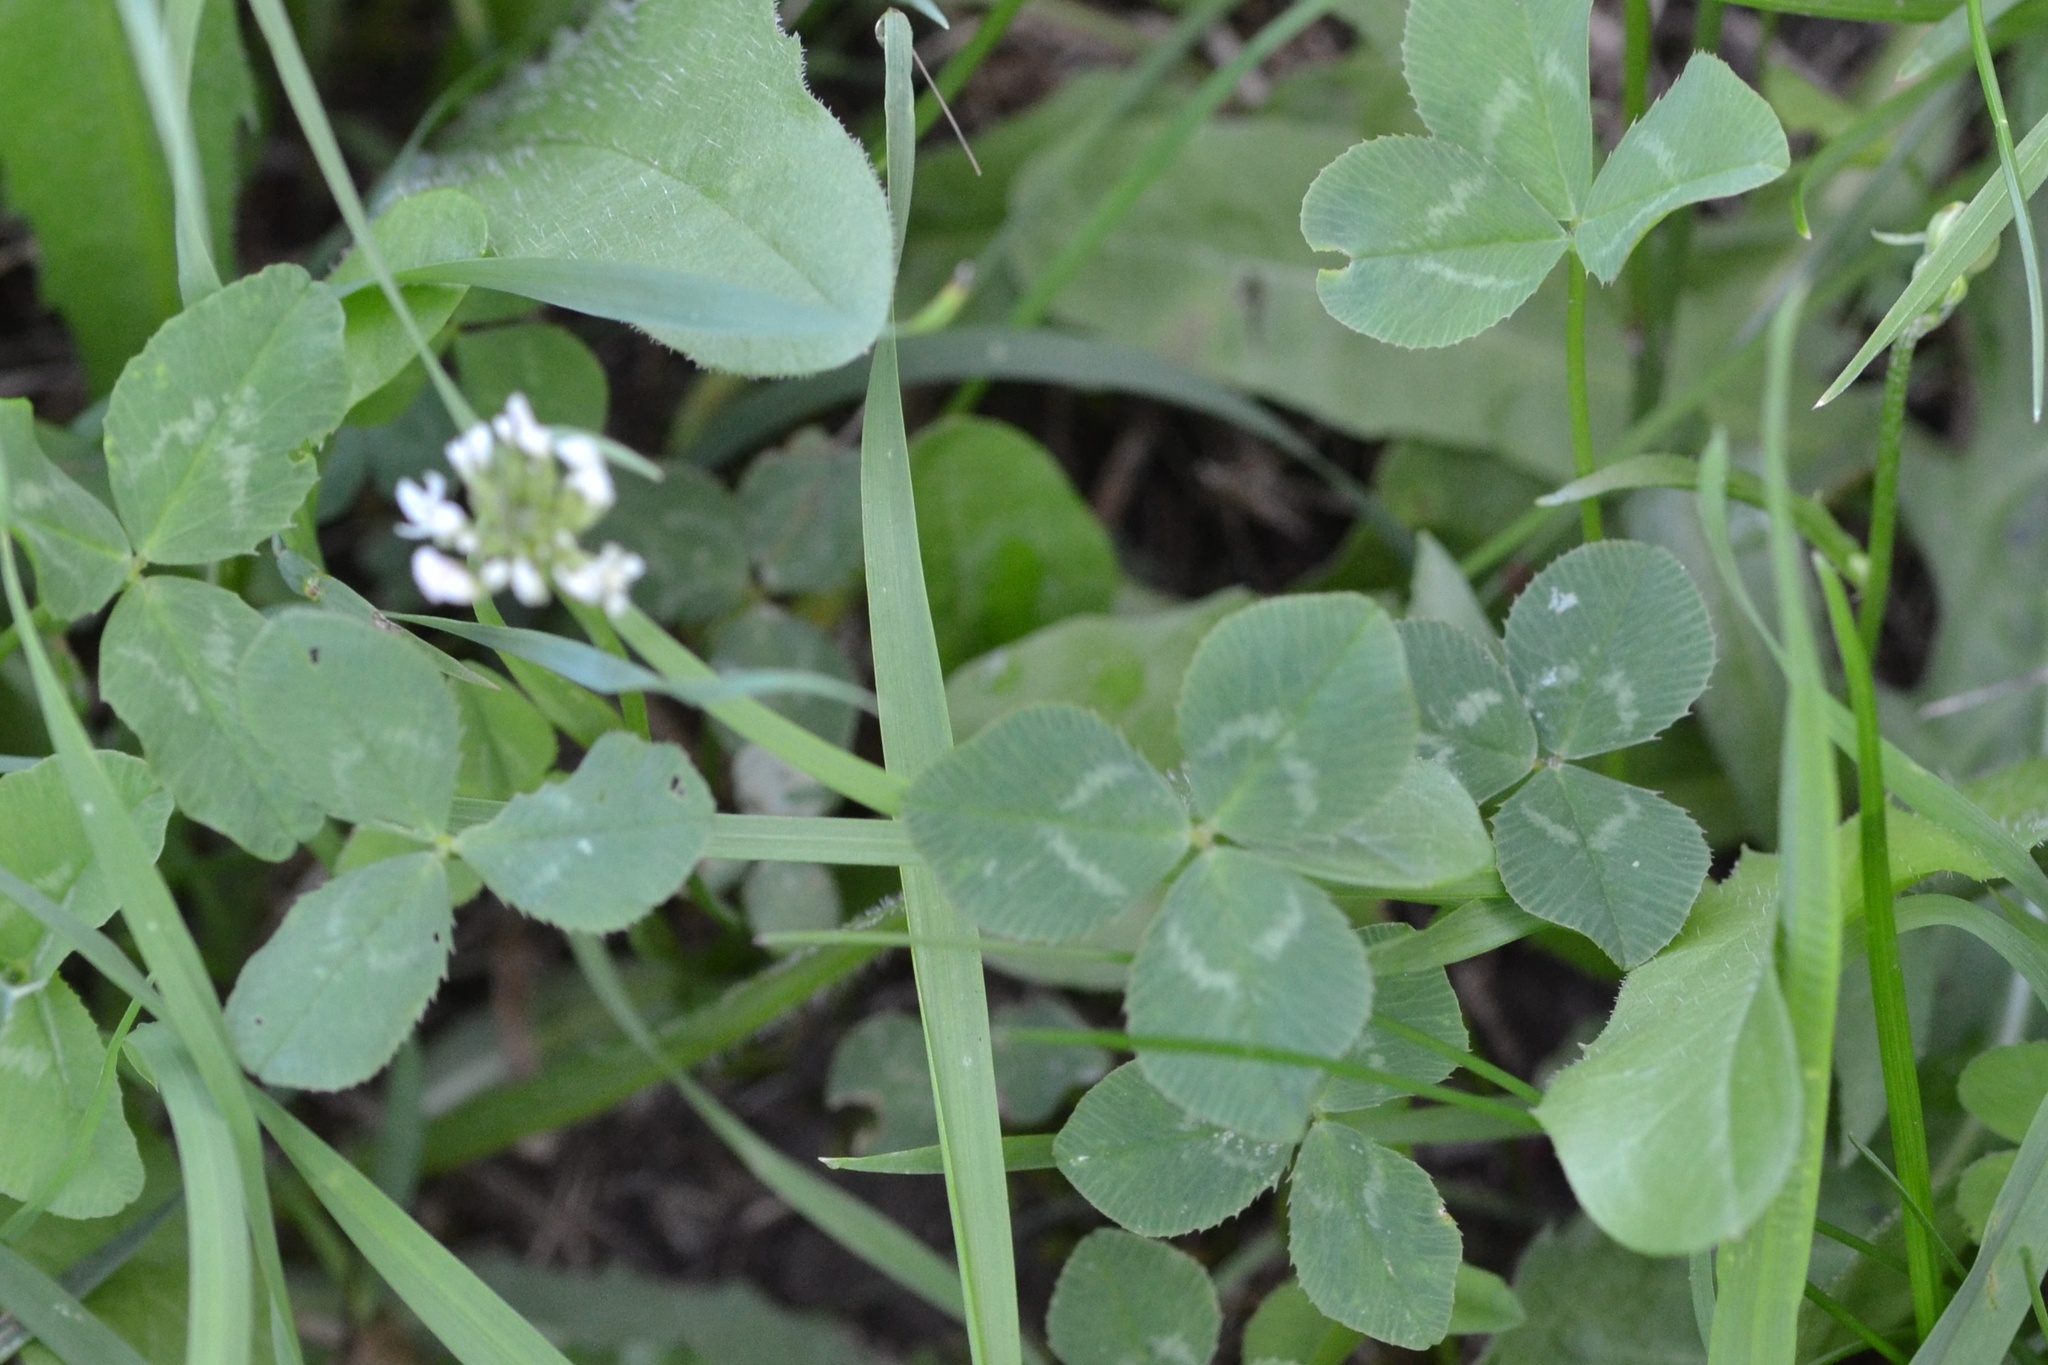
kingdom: Plantae
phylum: Tracheophyta
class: Magnoliopsida
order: Fabales
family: Fabaceae
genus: Trifolium
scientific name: Trifolium repens
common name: White clover
